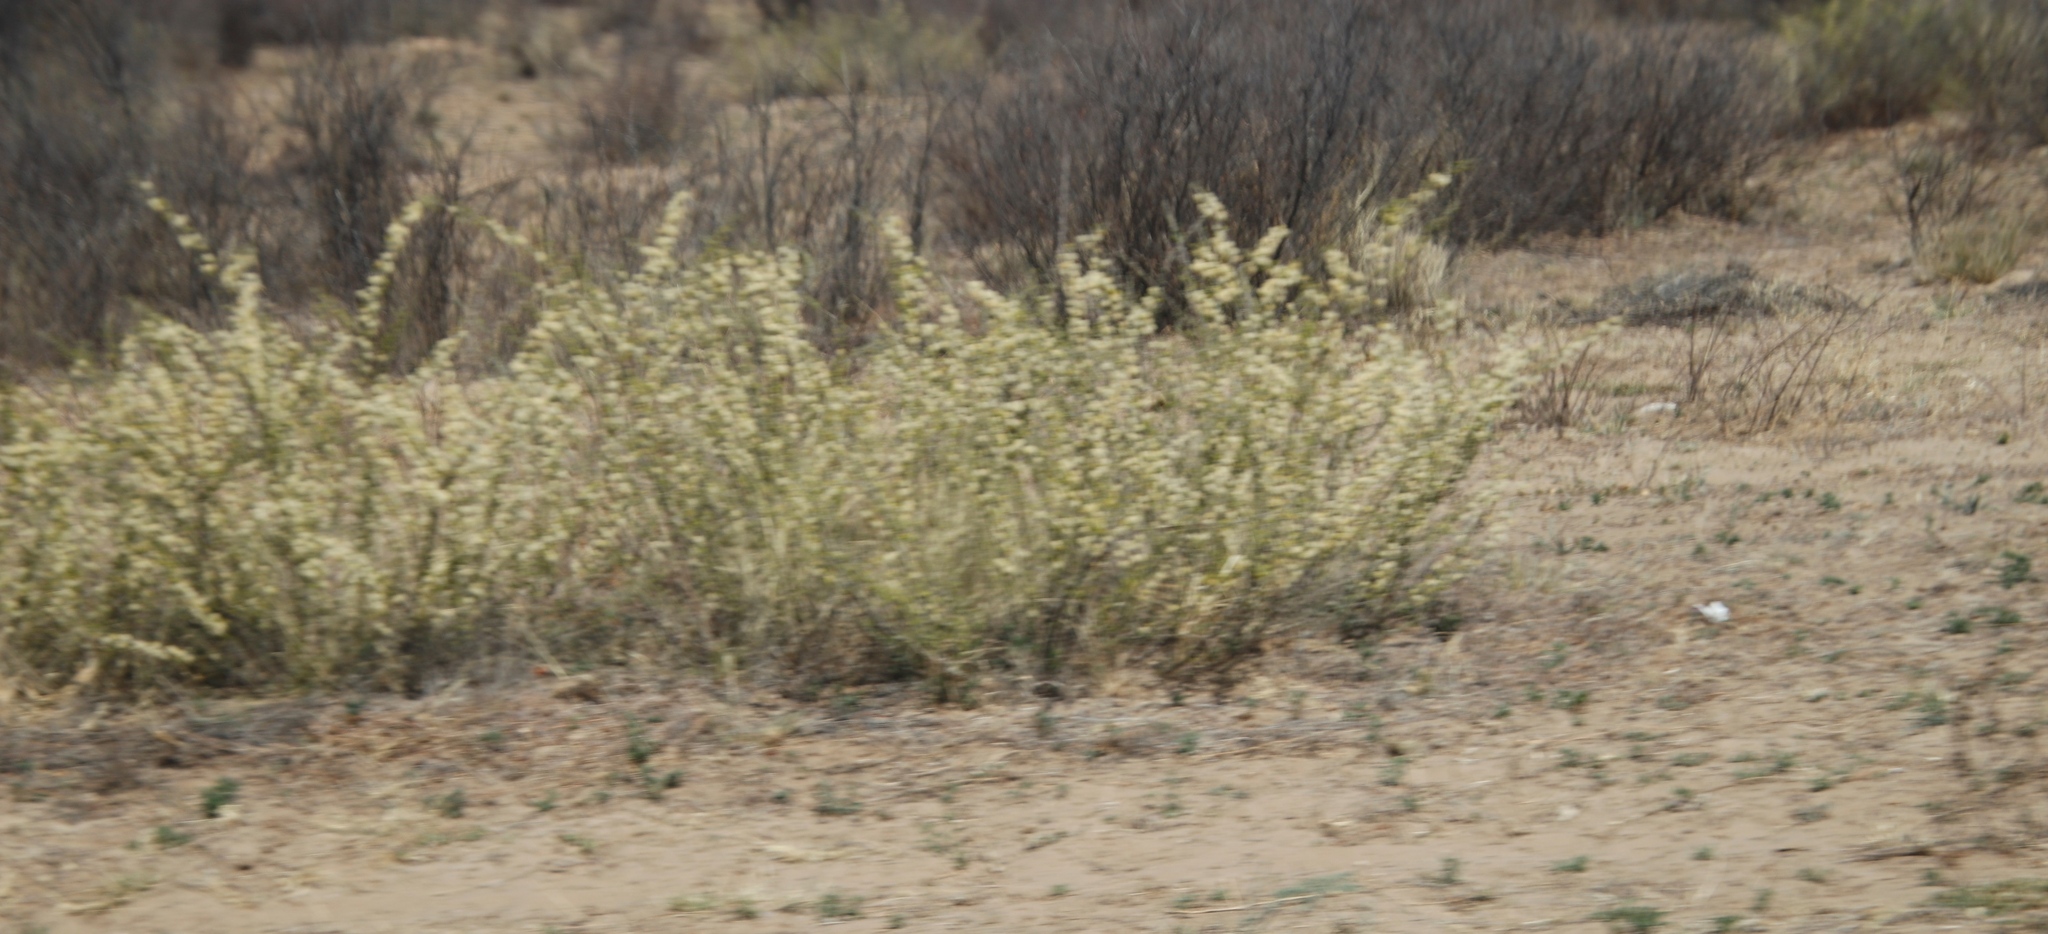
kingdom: Plantae
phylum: Tracheophyta
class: Magnoliopsida
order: Fabales
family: Fabaceae
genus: Vachellia
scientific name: Vachellia hebeclada
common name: Candle thorn
